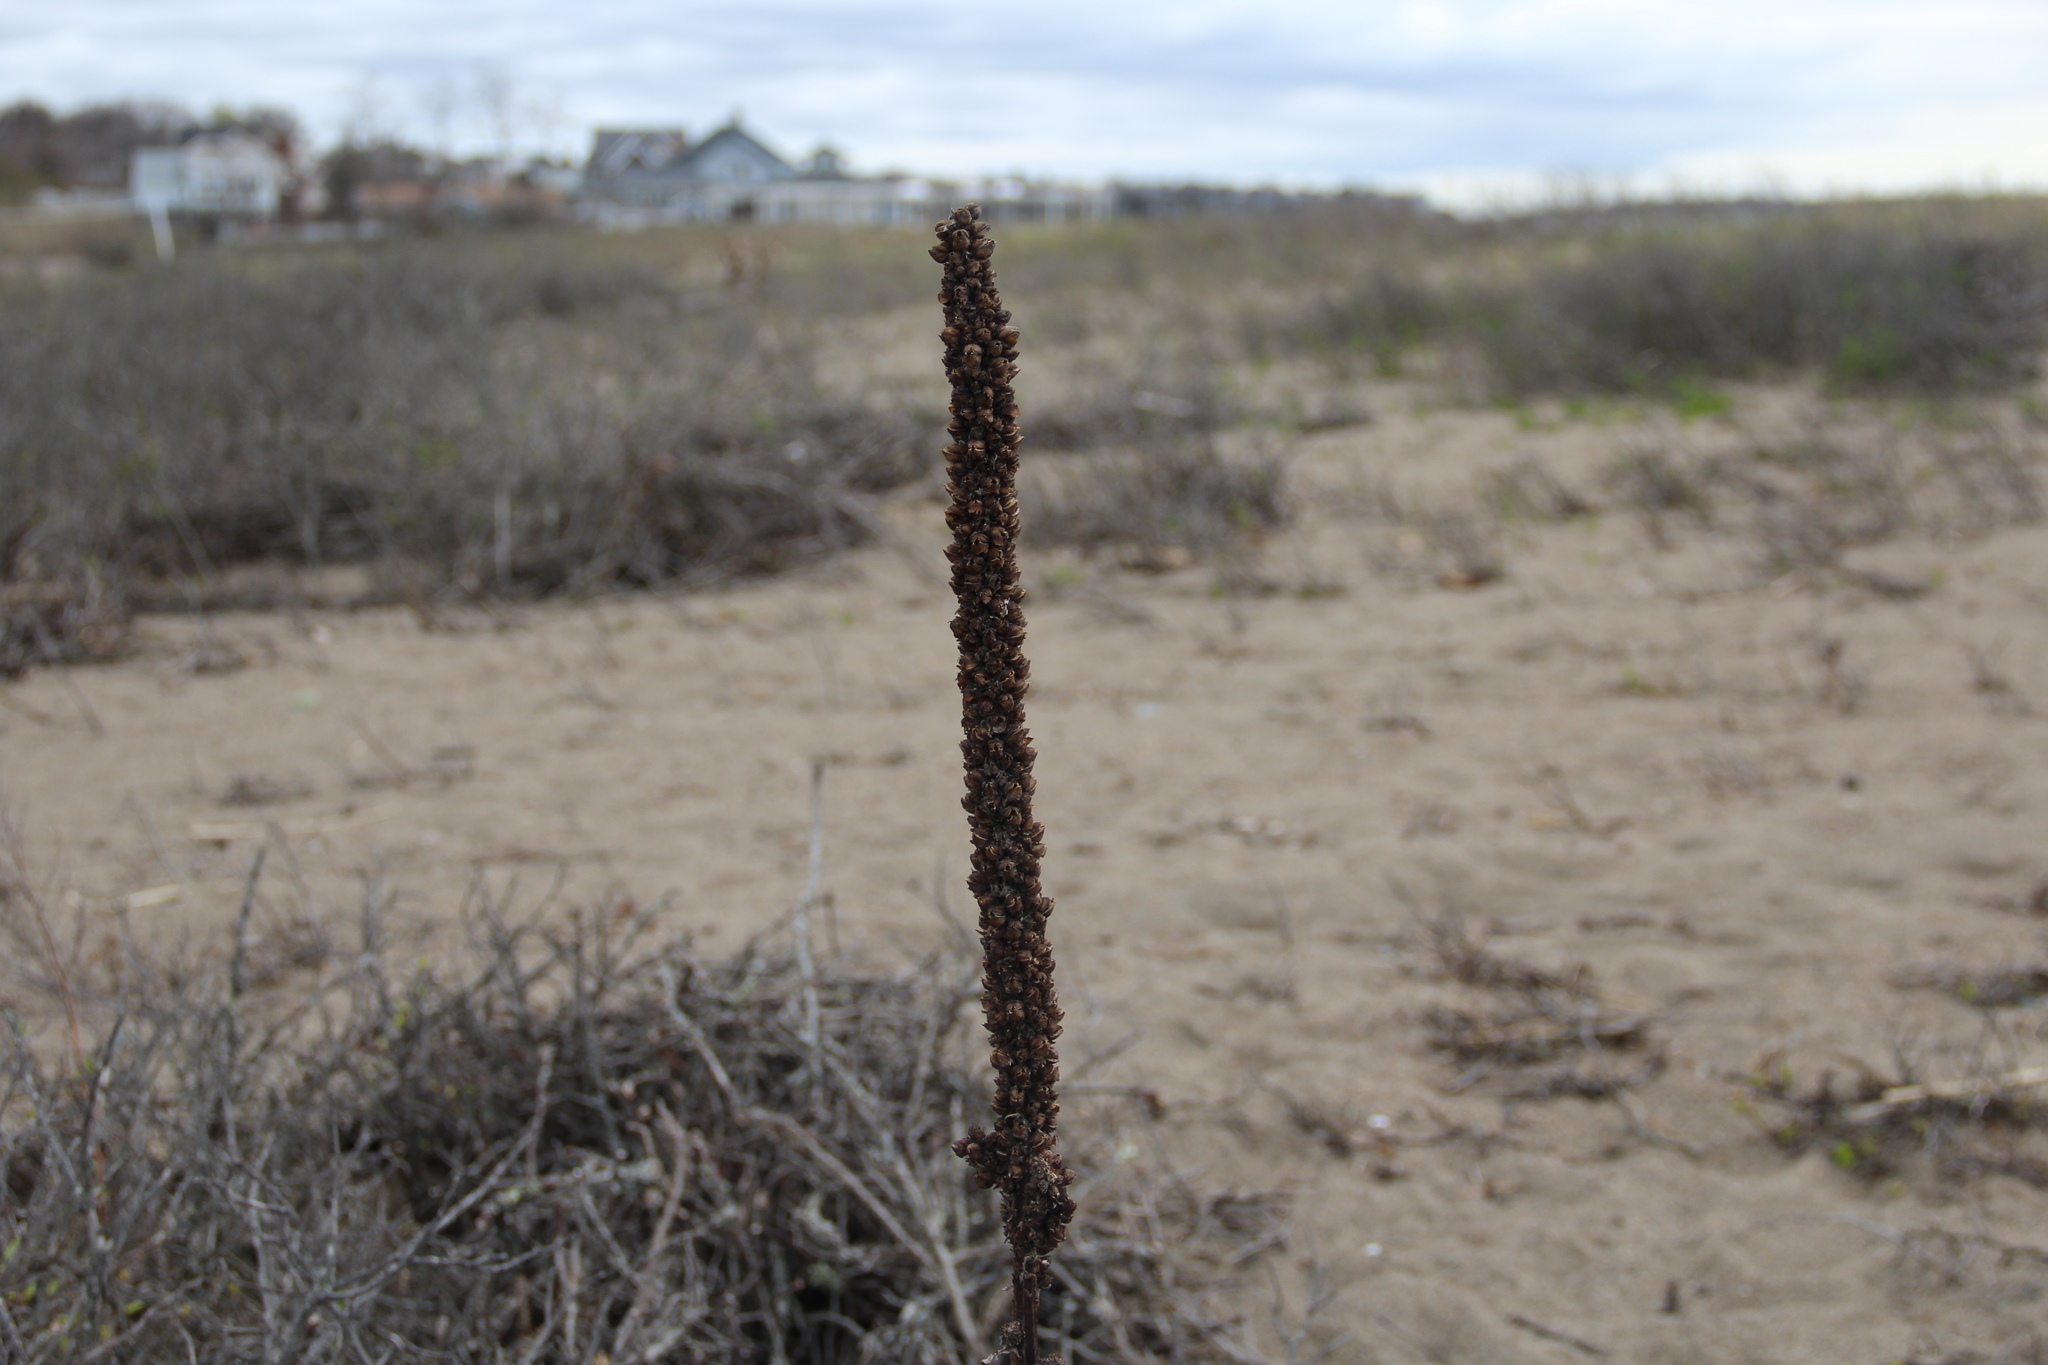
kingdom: Plantae
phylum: Tracheophyta
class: Magnoliopsida
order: Lamiales
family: Scrophulariaceae
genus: Verbascum
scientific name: Verbascum thapsus
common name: Common mullein
